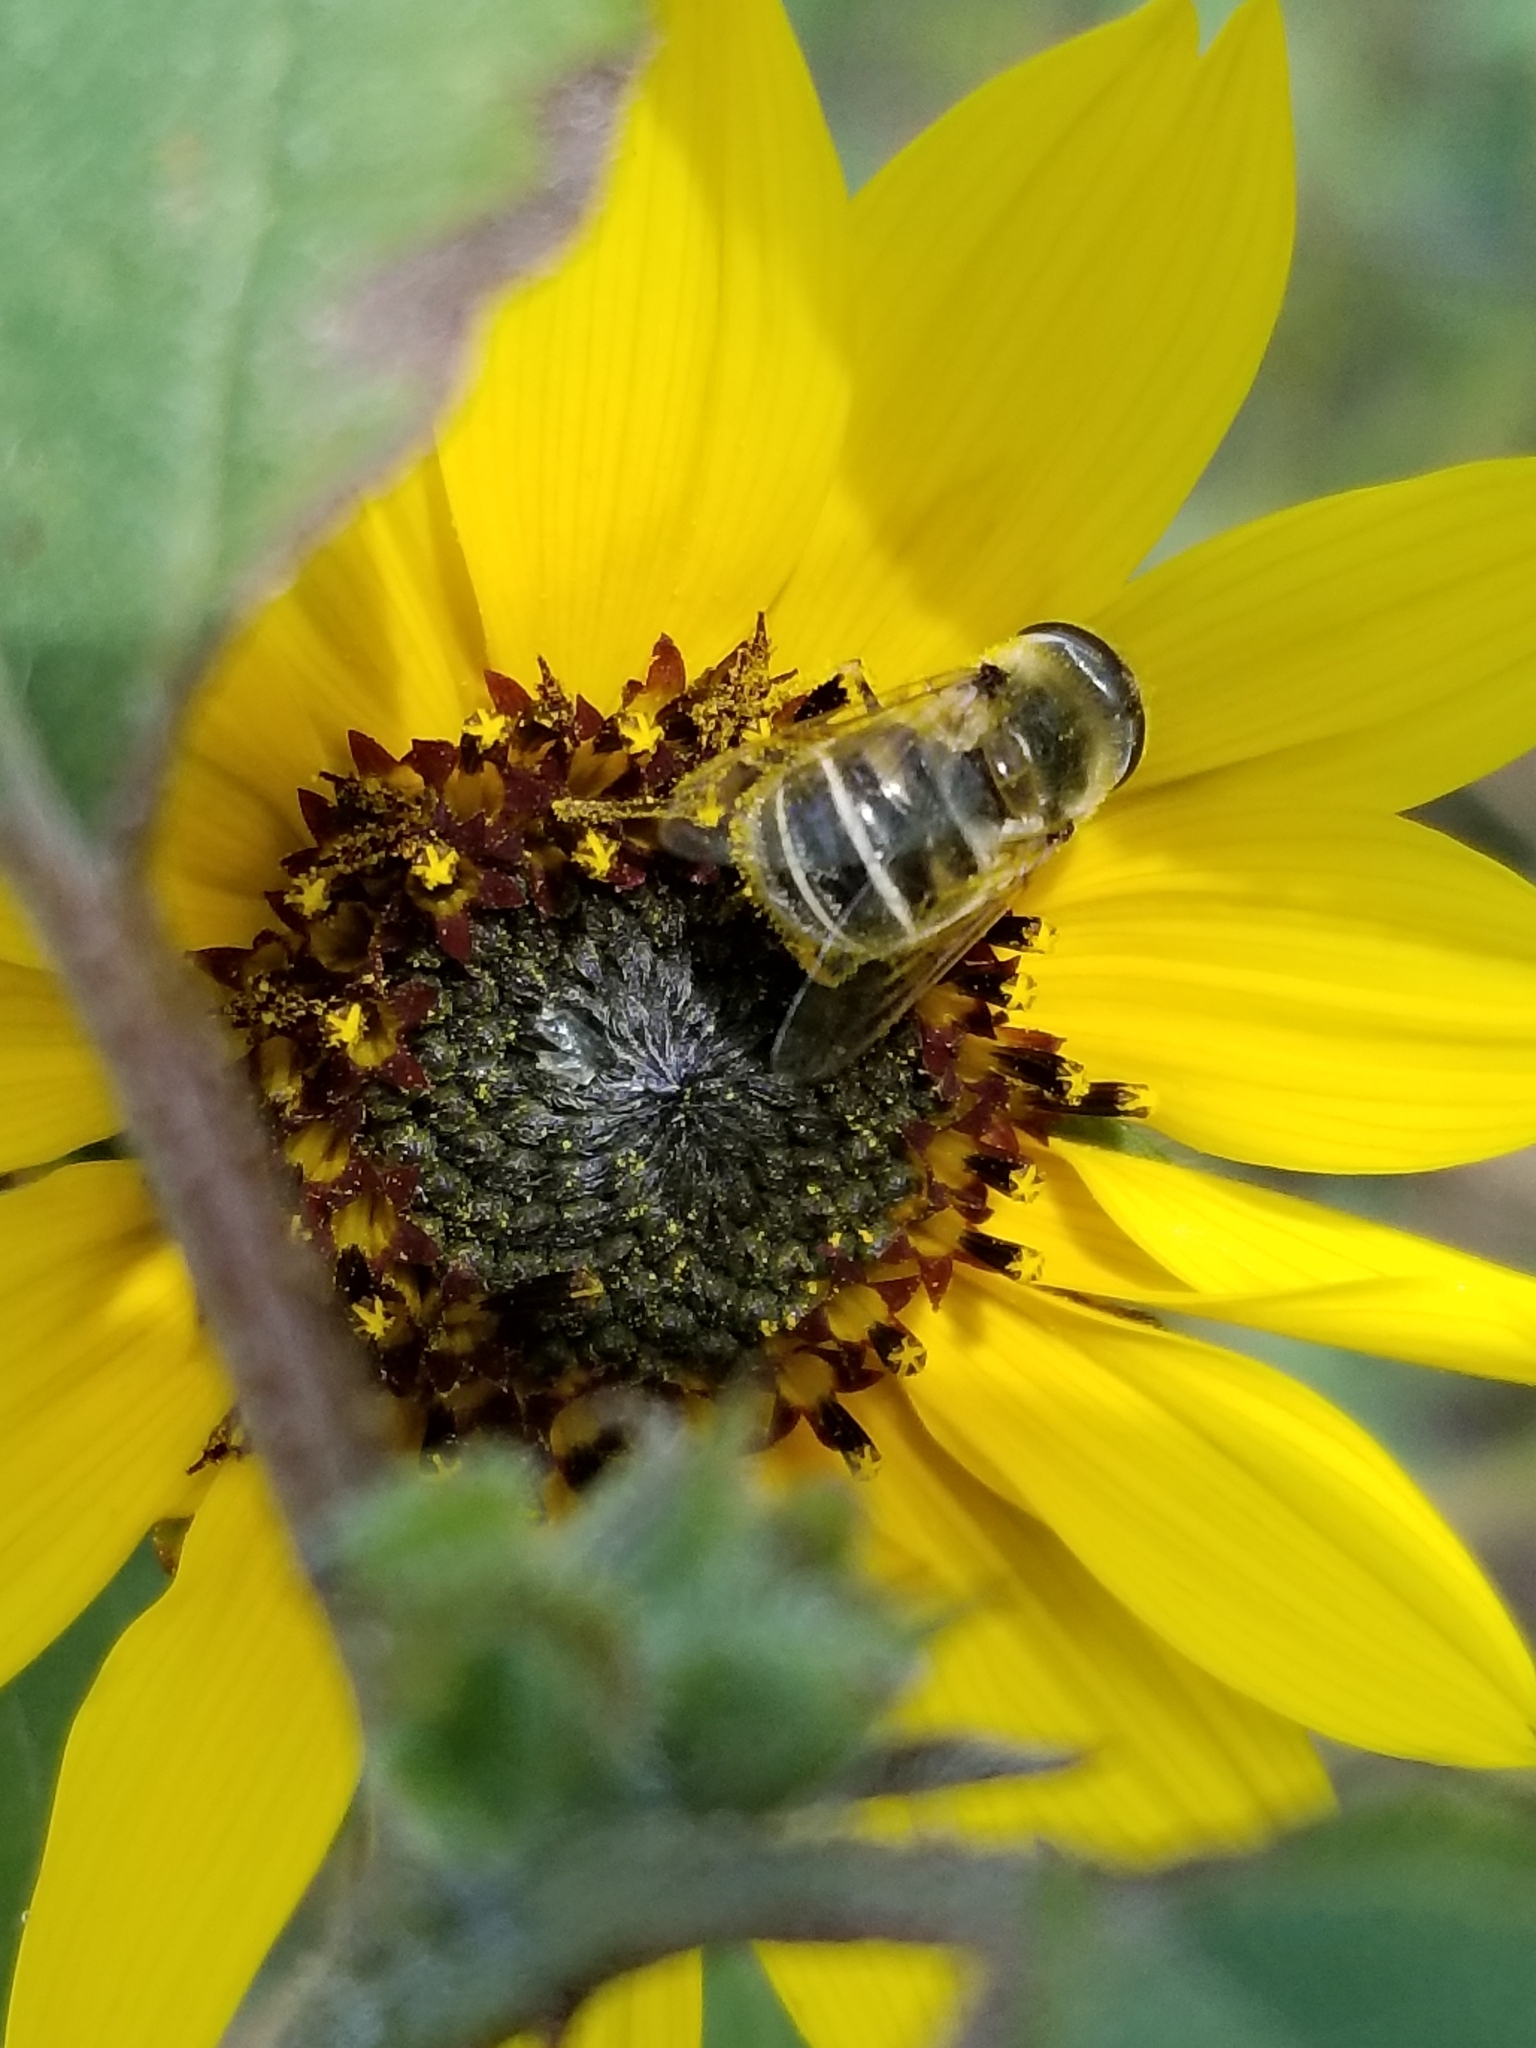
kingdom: Animalia
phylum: Arthropoda
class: Insecta
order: Diptera
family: Syrphidae
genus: Eristalis
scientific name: Eristalis stipator
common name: Yellow-shouldered drone fly
